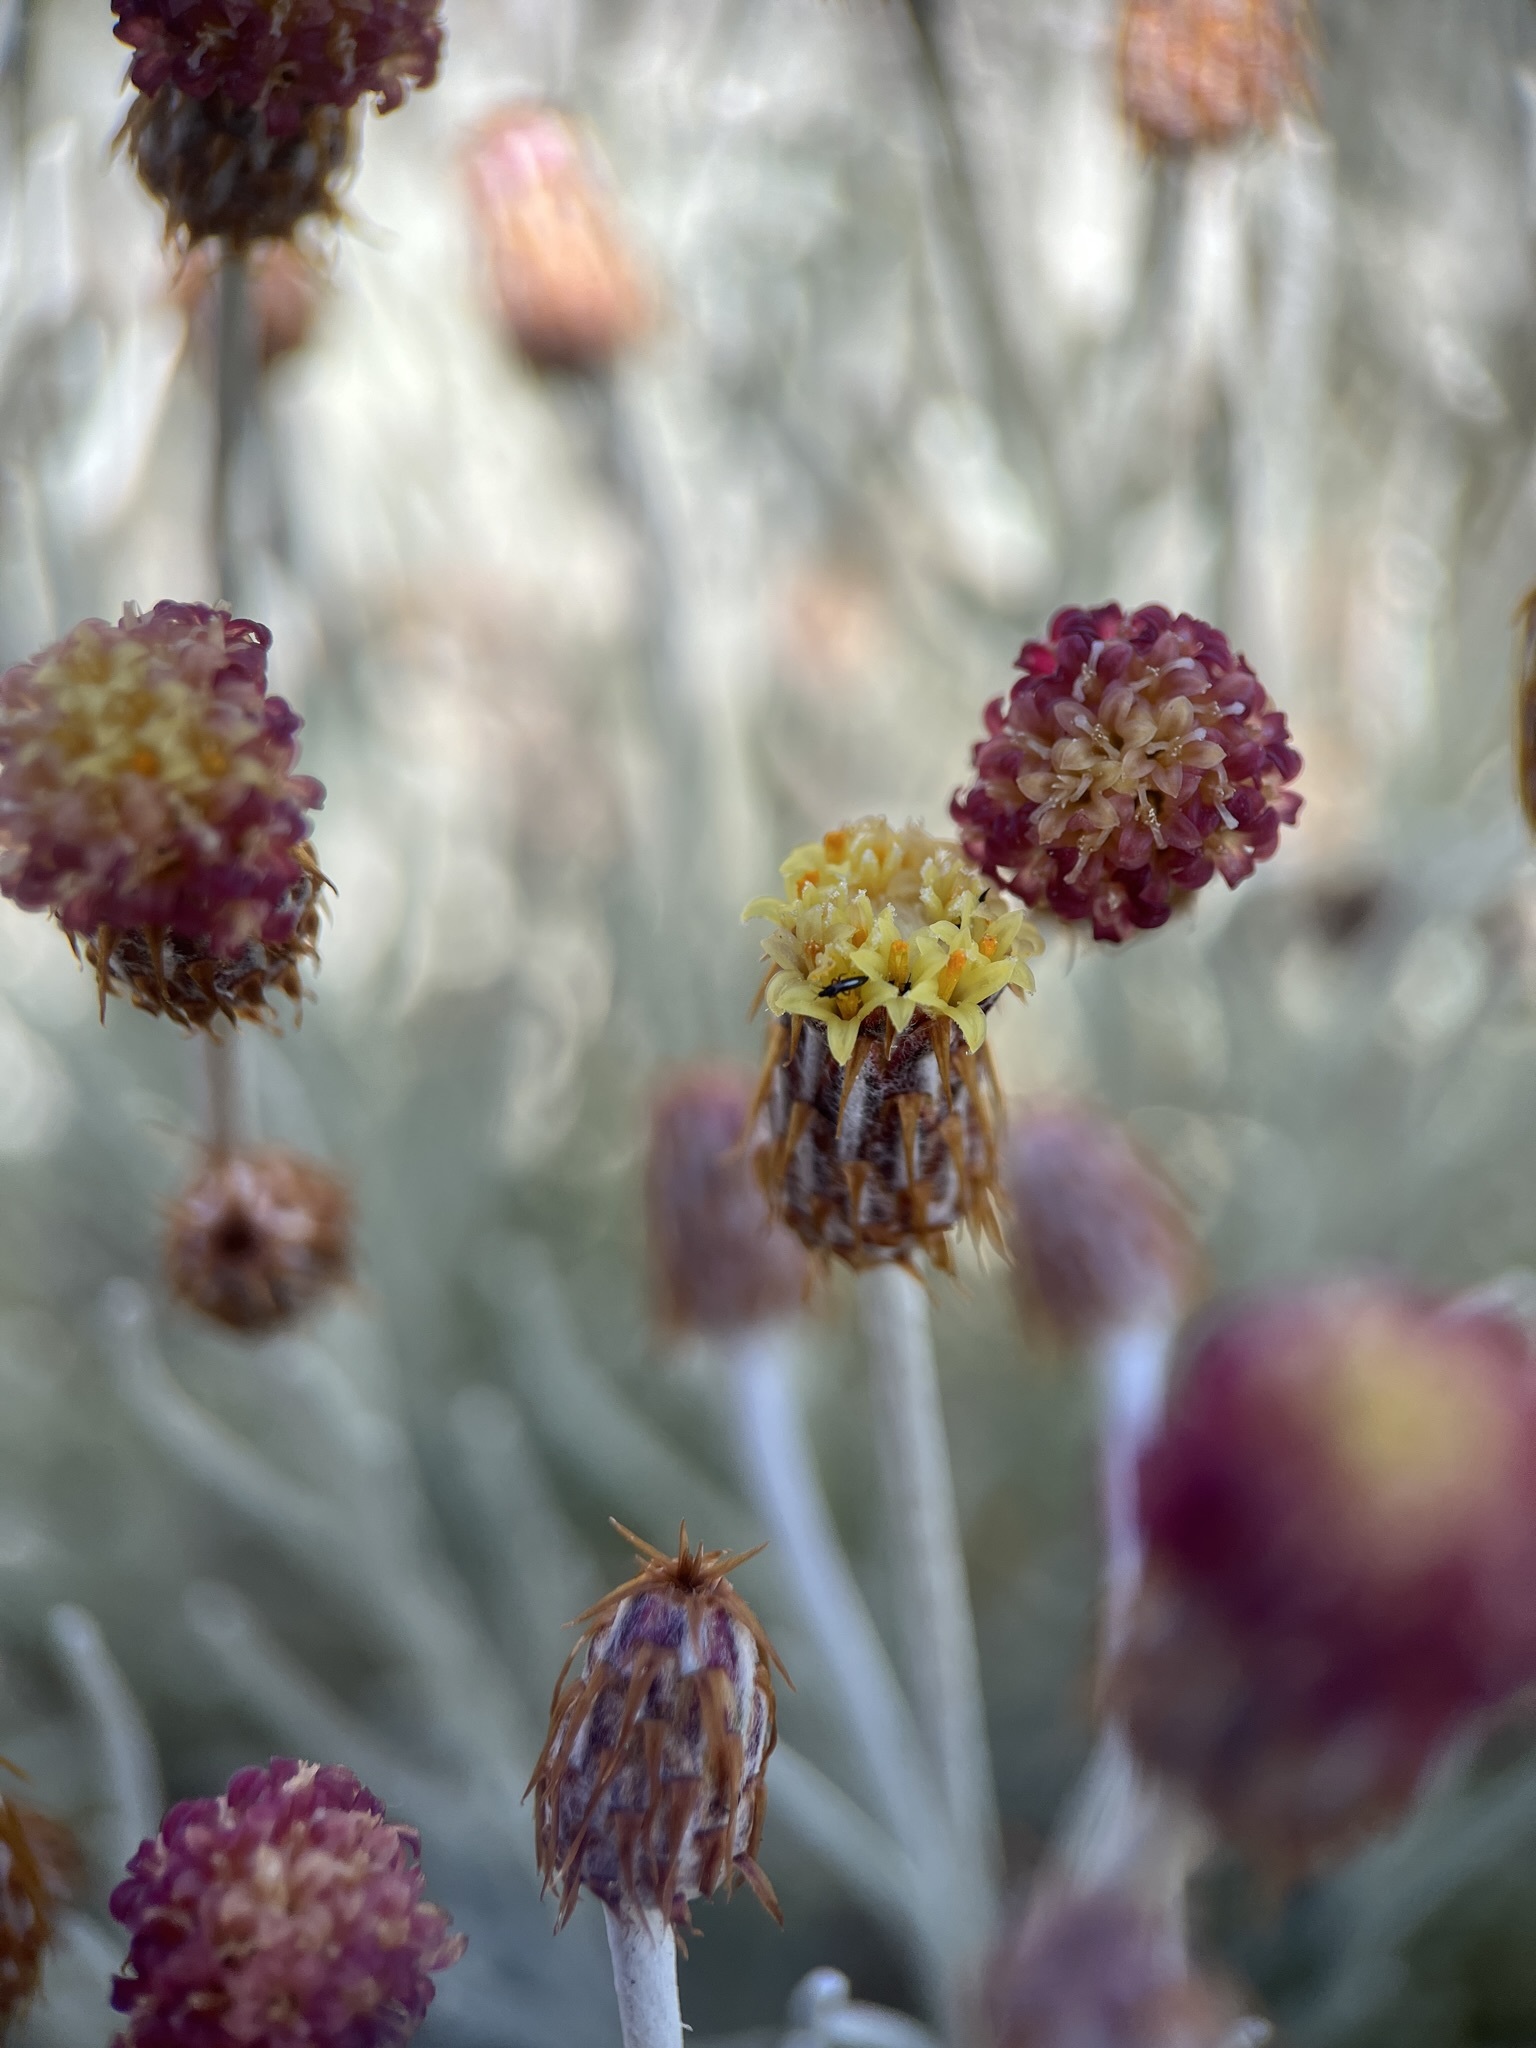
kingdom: Plantae
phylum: Tracheophyta
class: Magnoliopsida
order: Asterales
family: Asteraceae
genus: Syncarpha
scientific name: Syncarpha gnaphaloides
